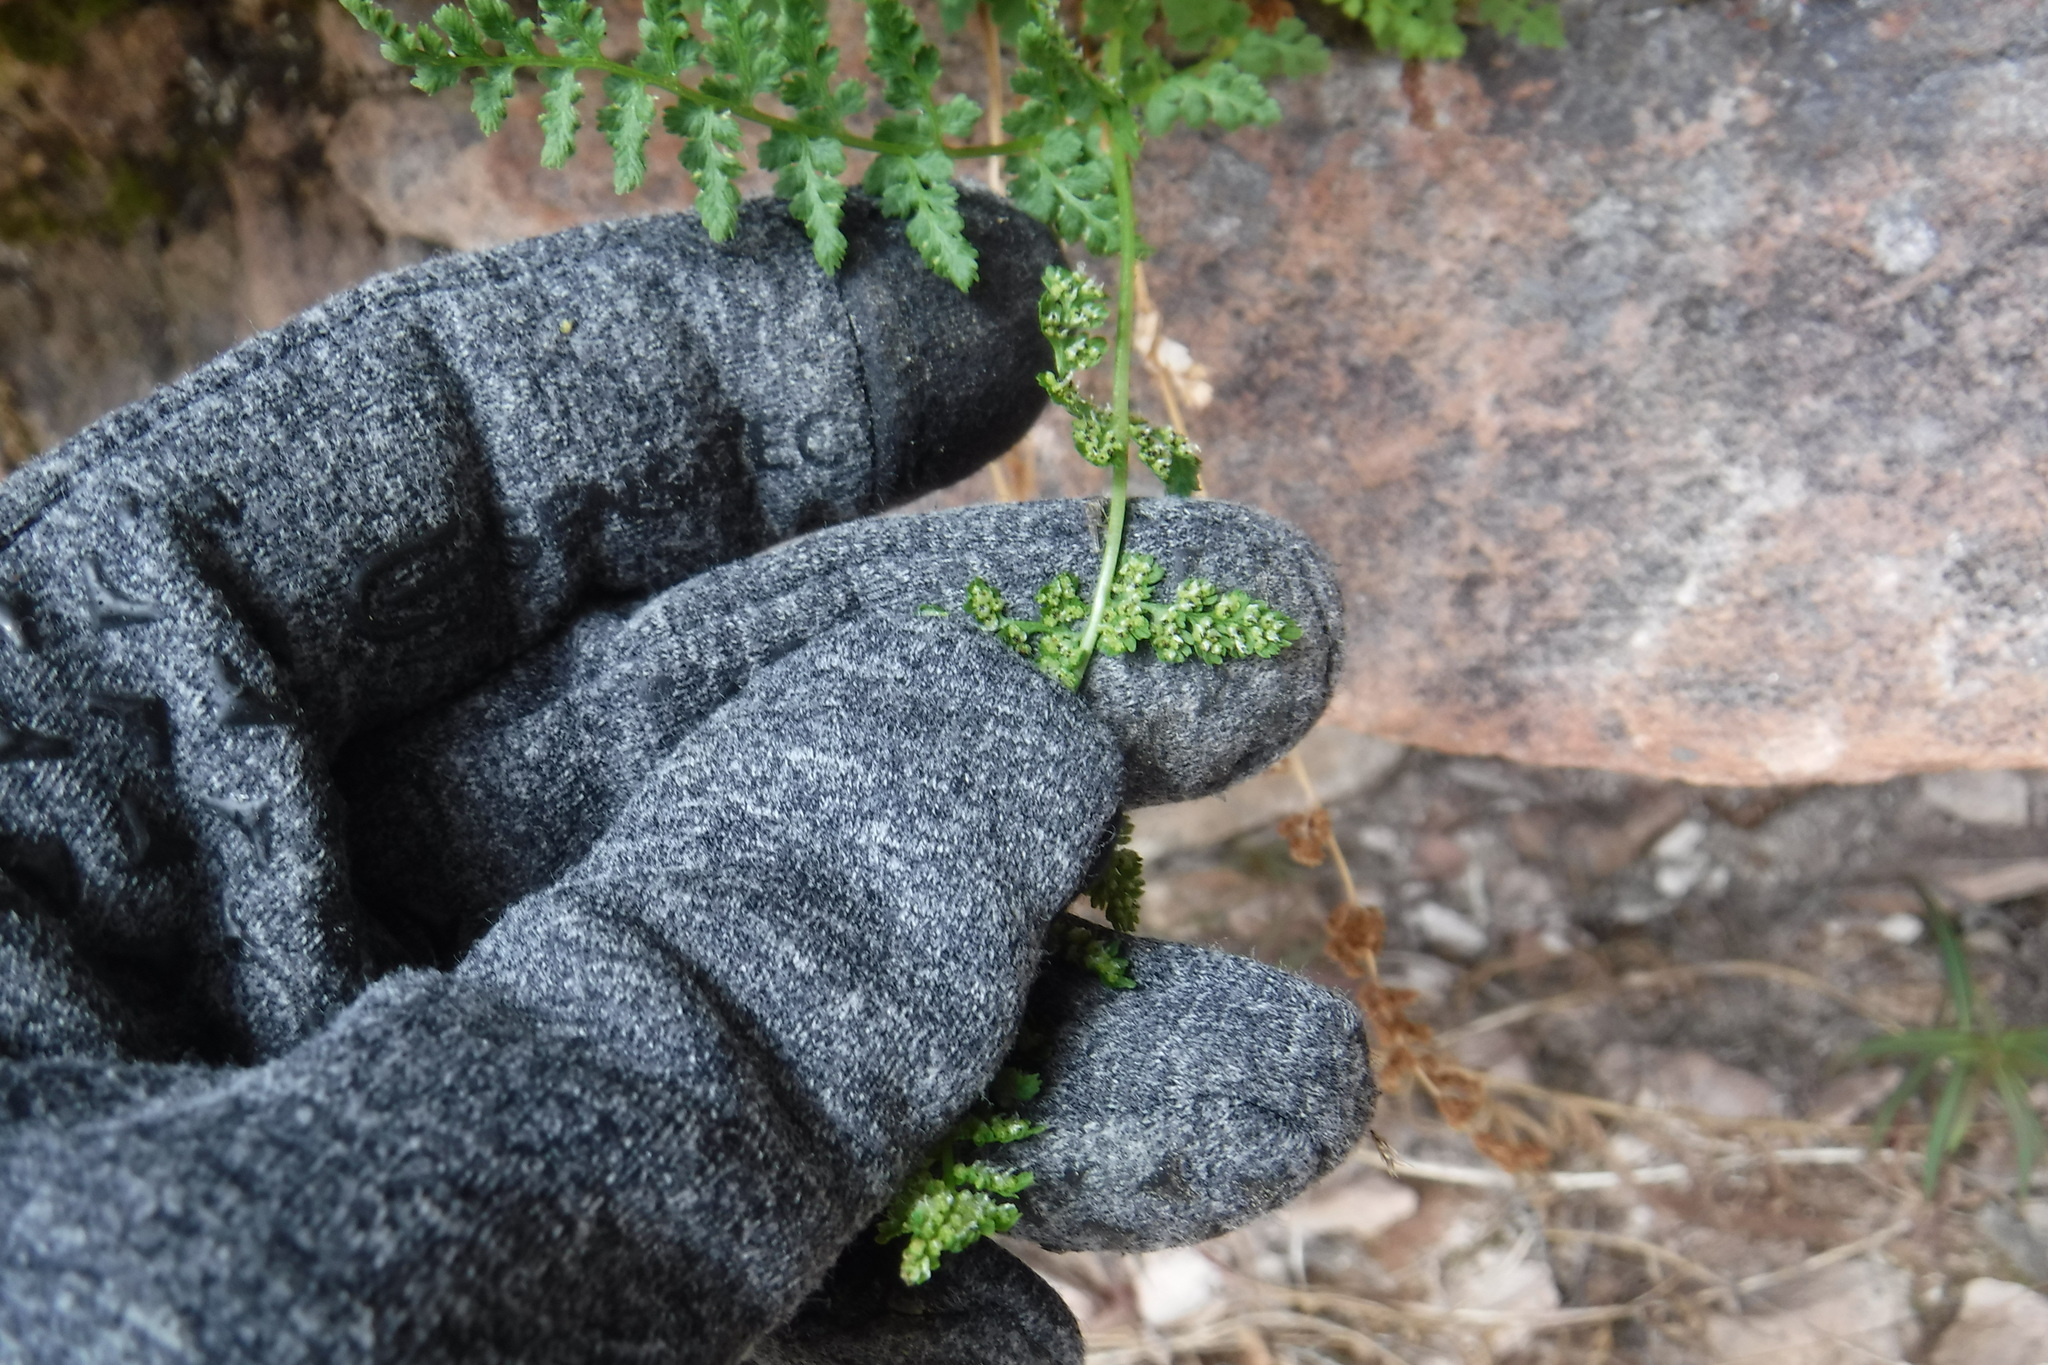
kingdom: Plantae
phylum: Tracheophyta
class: Polypodiopsida
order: Polypodiales
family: Cystopteridaceae
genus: Cystopteris
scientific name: Cystopteris fragilis
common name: Brittle bladder fern
